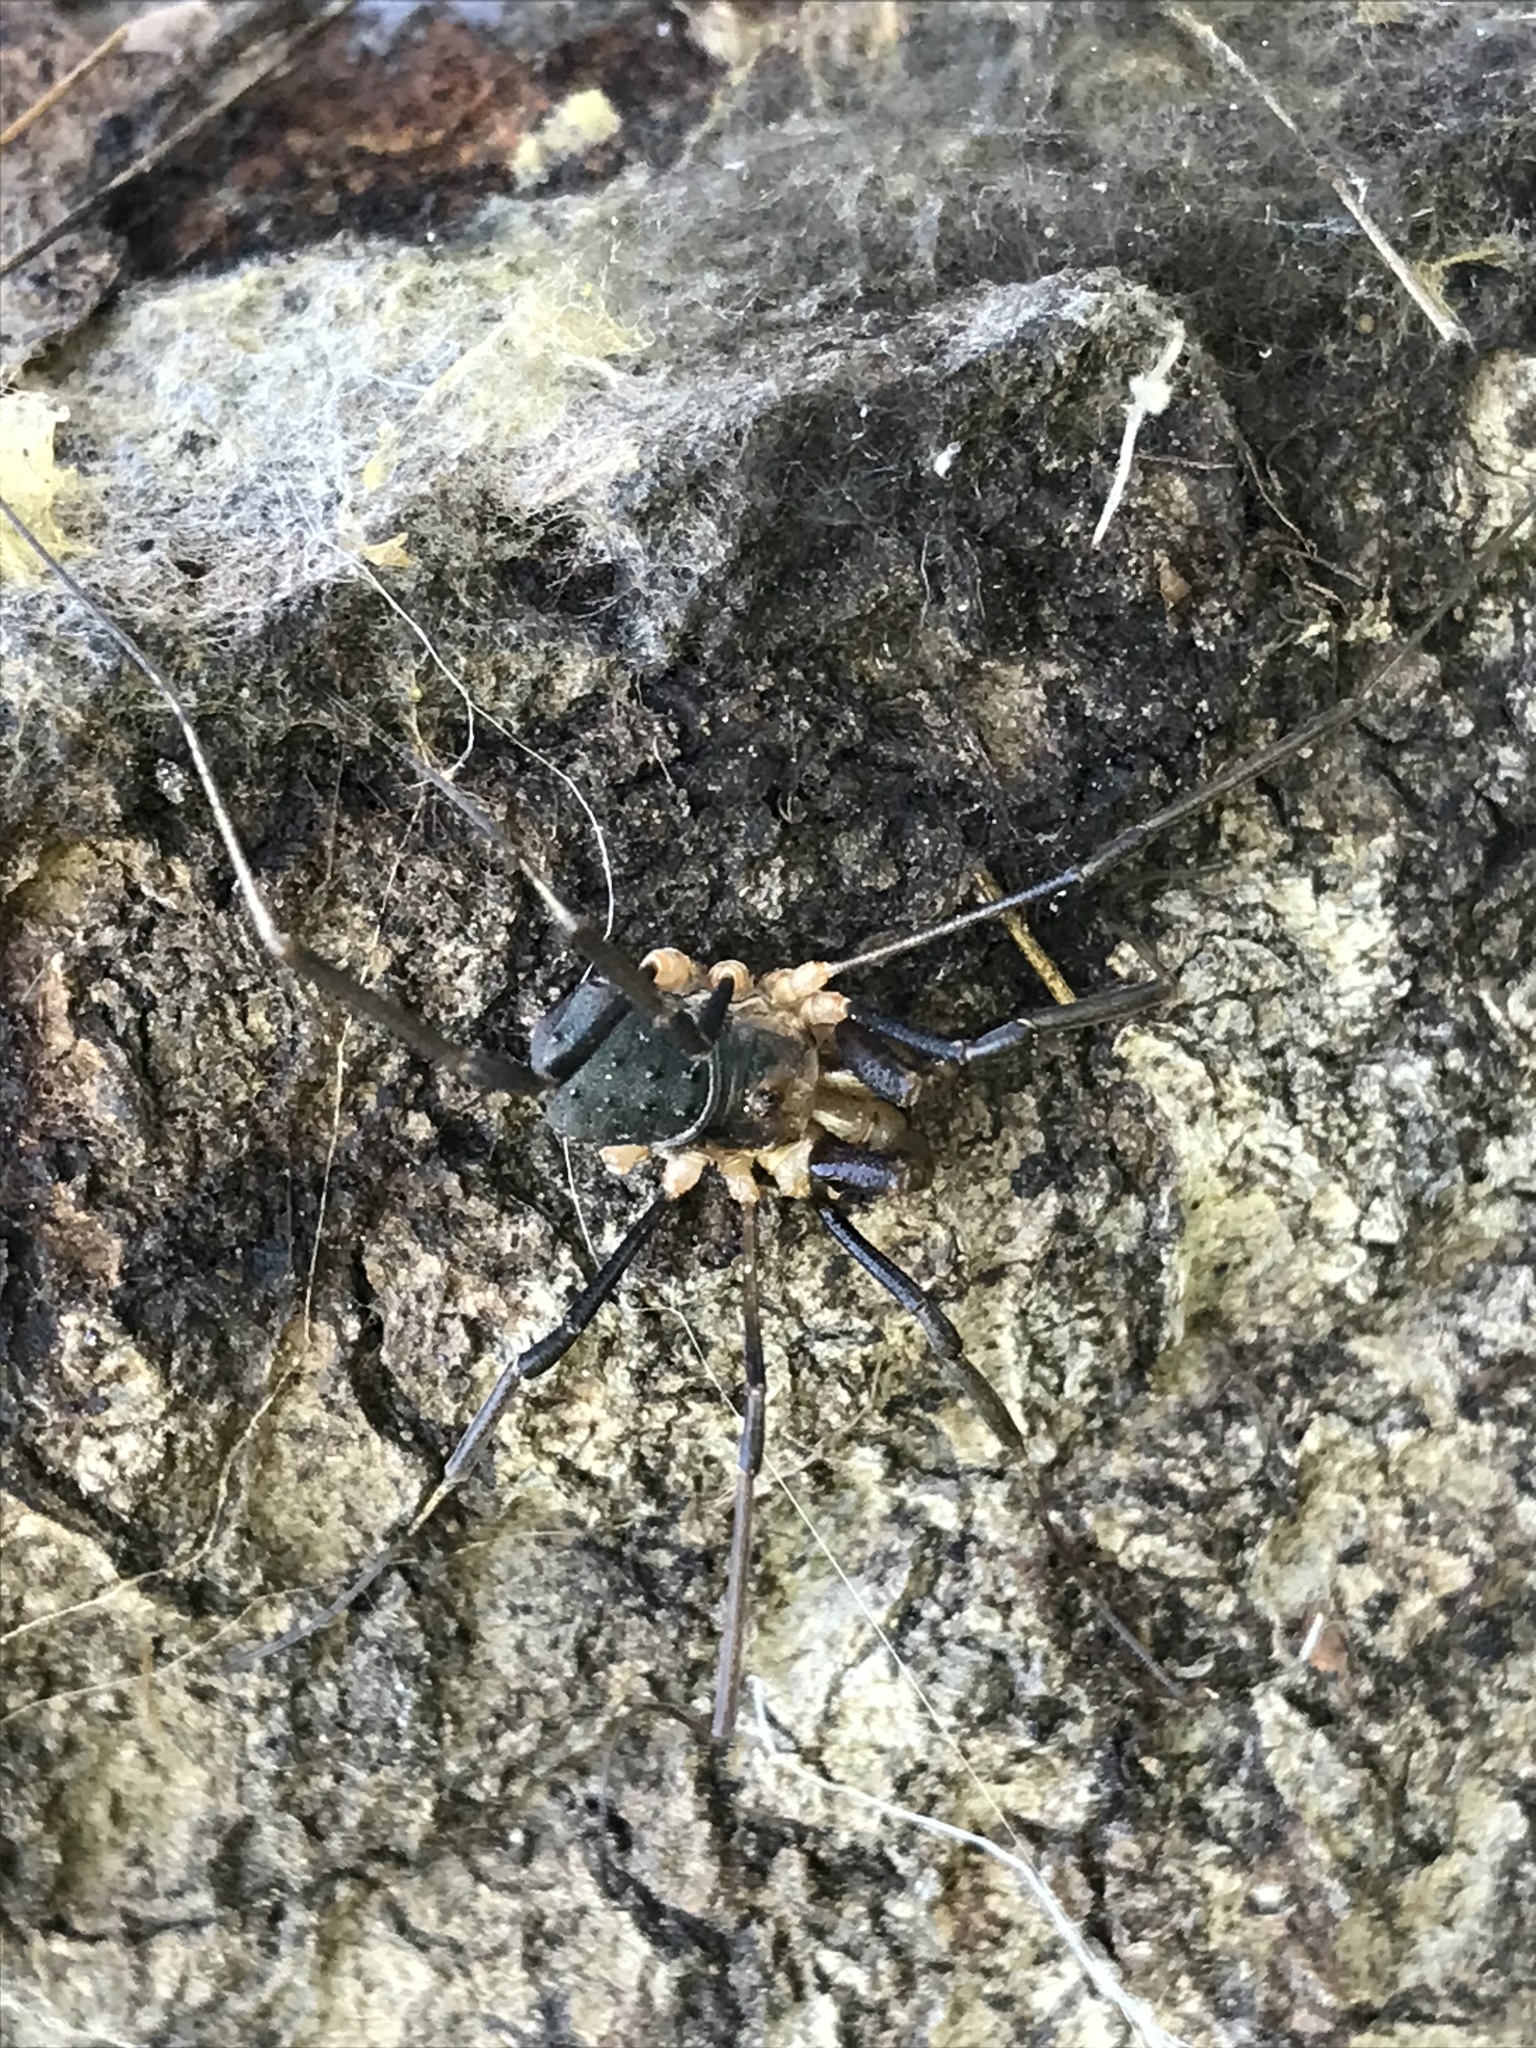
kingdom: Animalia
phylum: Arthropoda
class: Arachnida
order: Opiliones
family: Protolophidae
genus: Protolophus
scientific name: Protolophus tuberculatus
